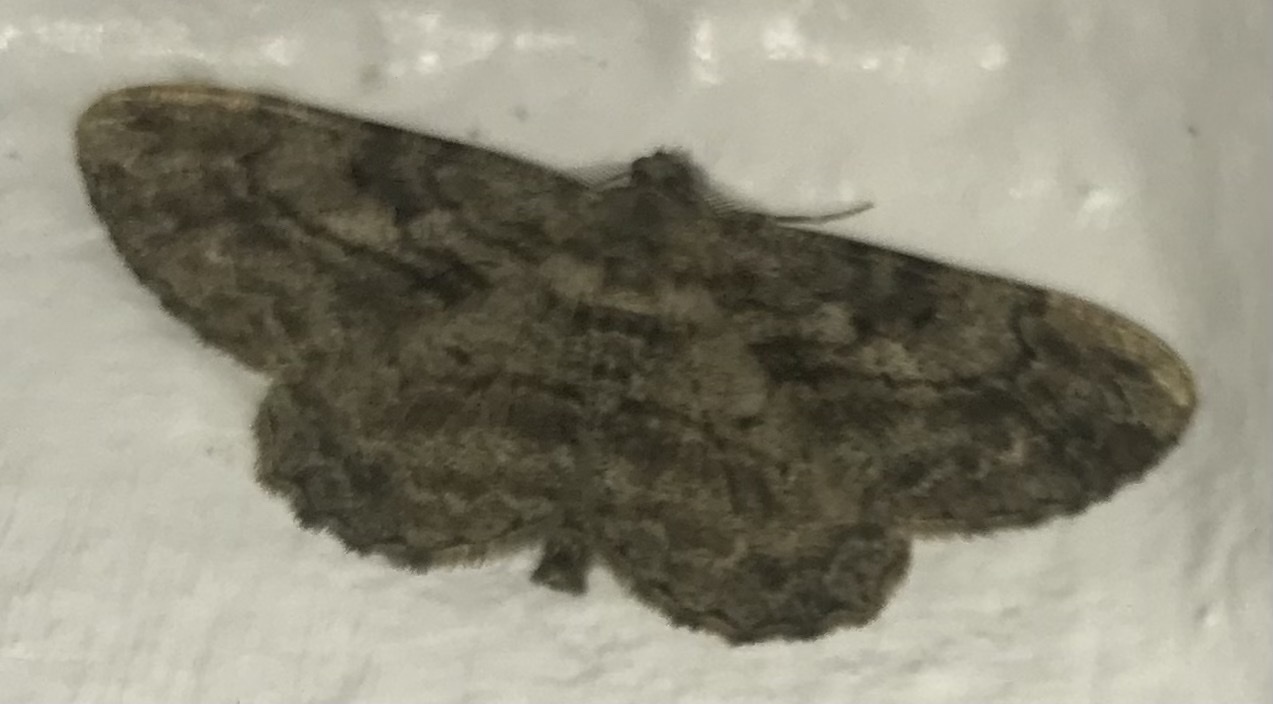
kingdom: Animalia
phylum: Arthropoda
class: Insecta
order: Lepidoptera
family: Geometridae
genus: Peribatodes
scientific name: Peribatodes rhomboidaria
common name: Willow beauty
